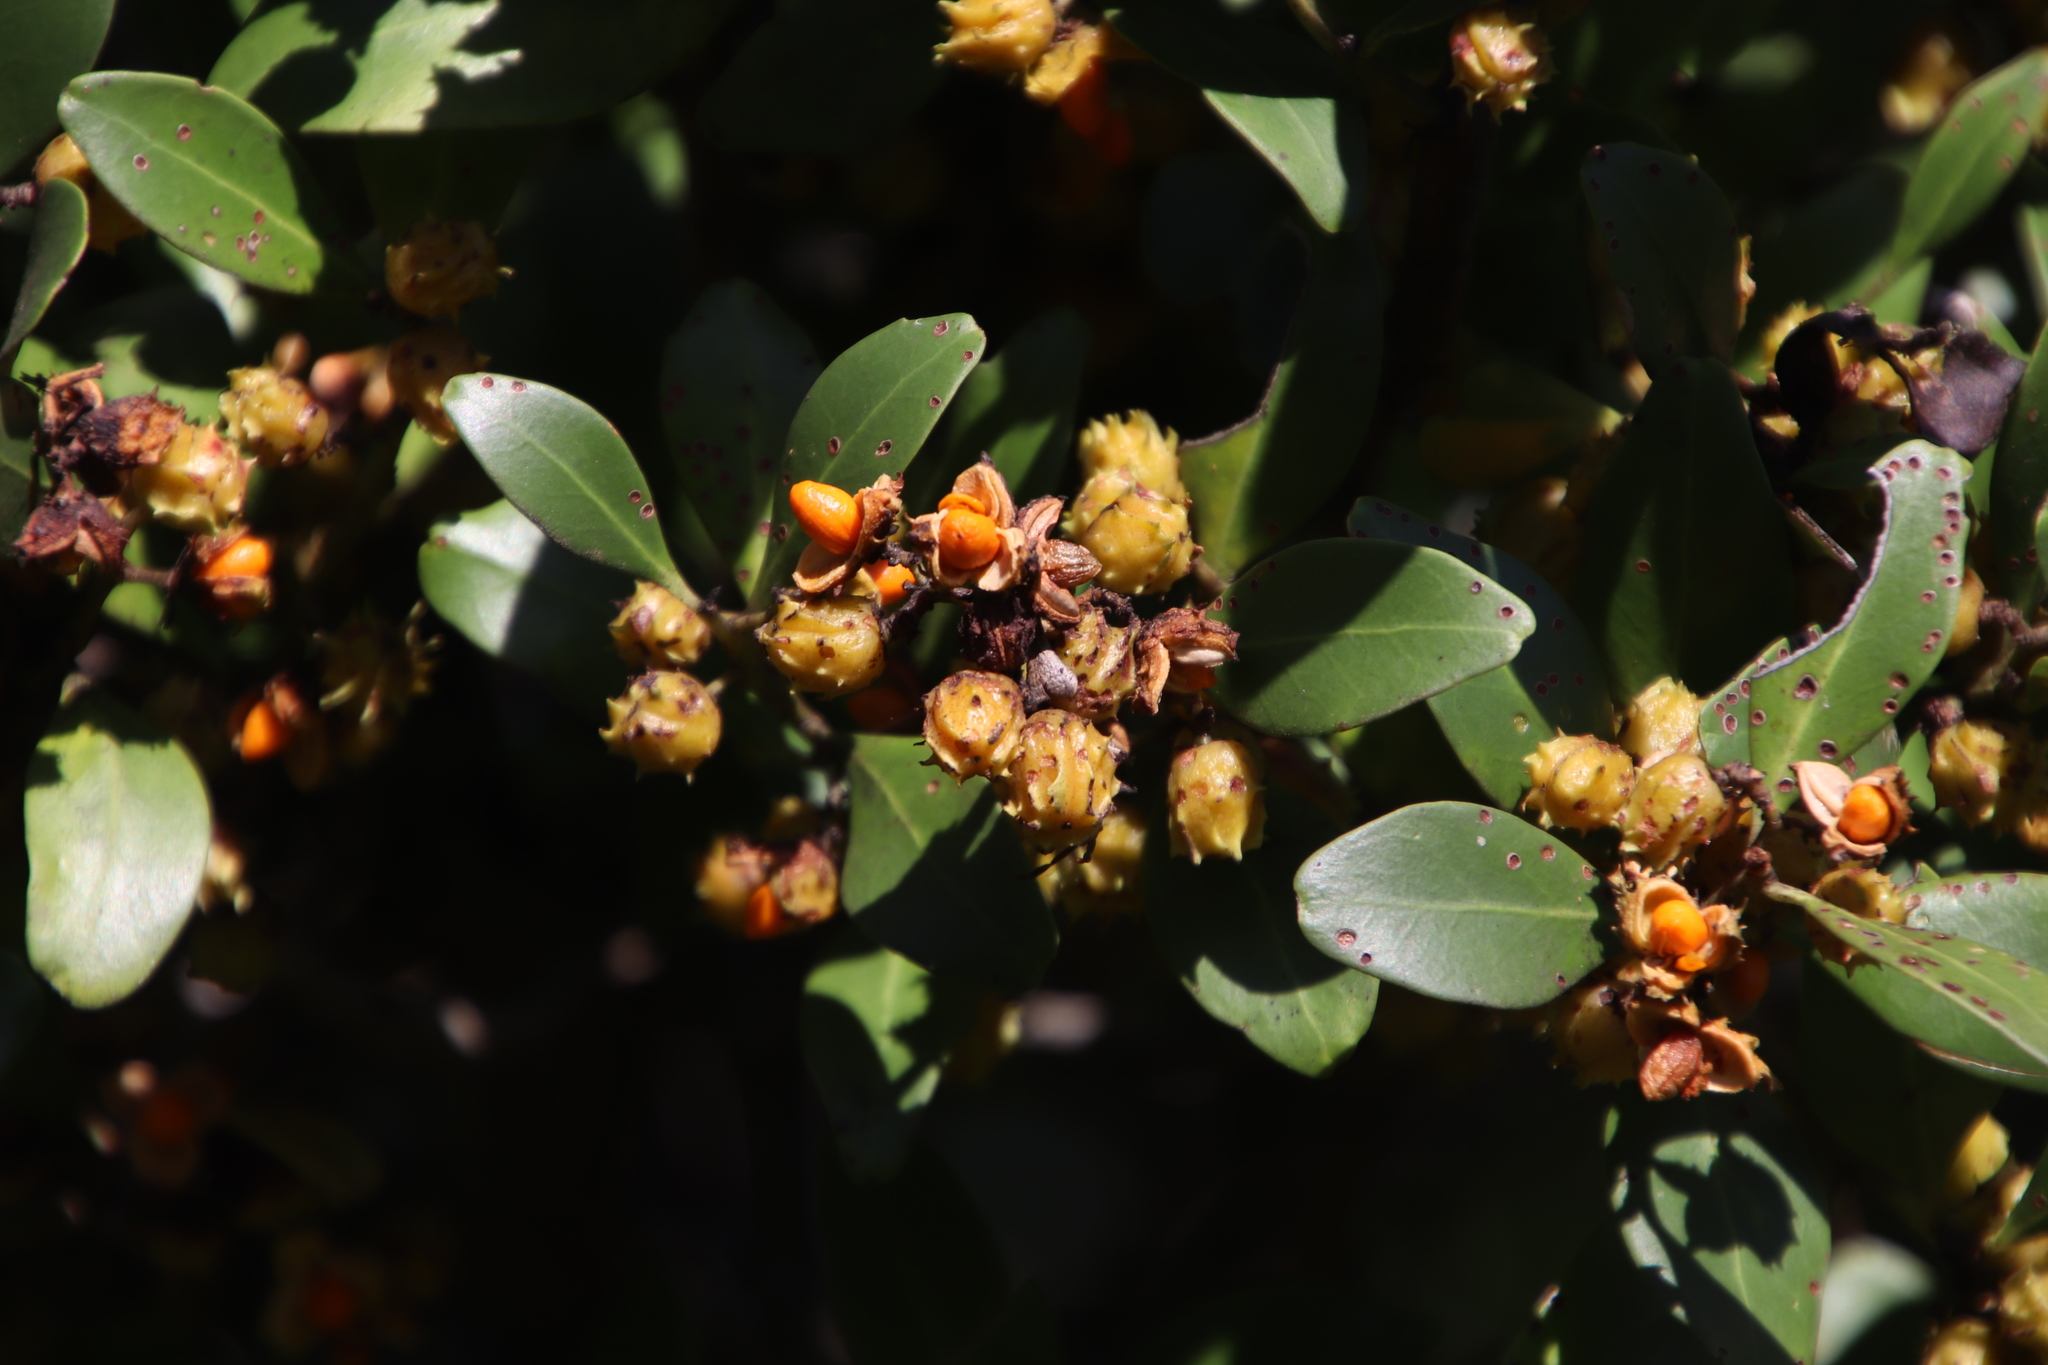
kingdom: Plantae
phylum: Tracheophyta
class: Magnoliopsida
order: Celastrales
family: Celastraceae
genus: Pterocelastrus
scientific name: Pterocelastrus echinatus
